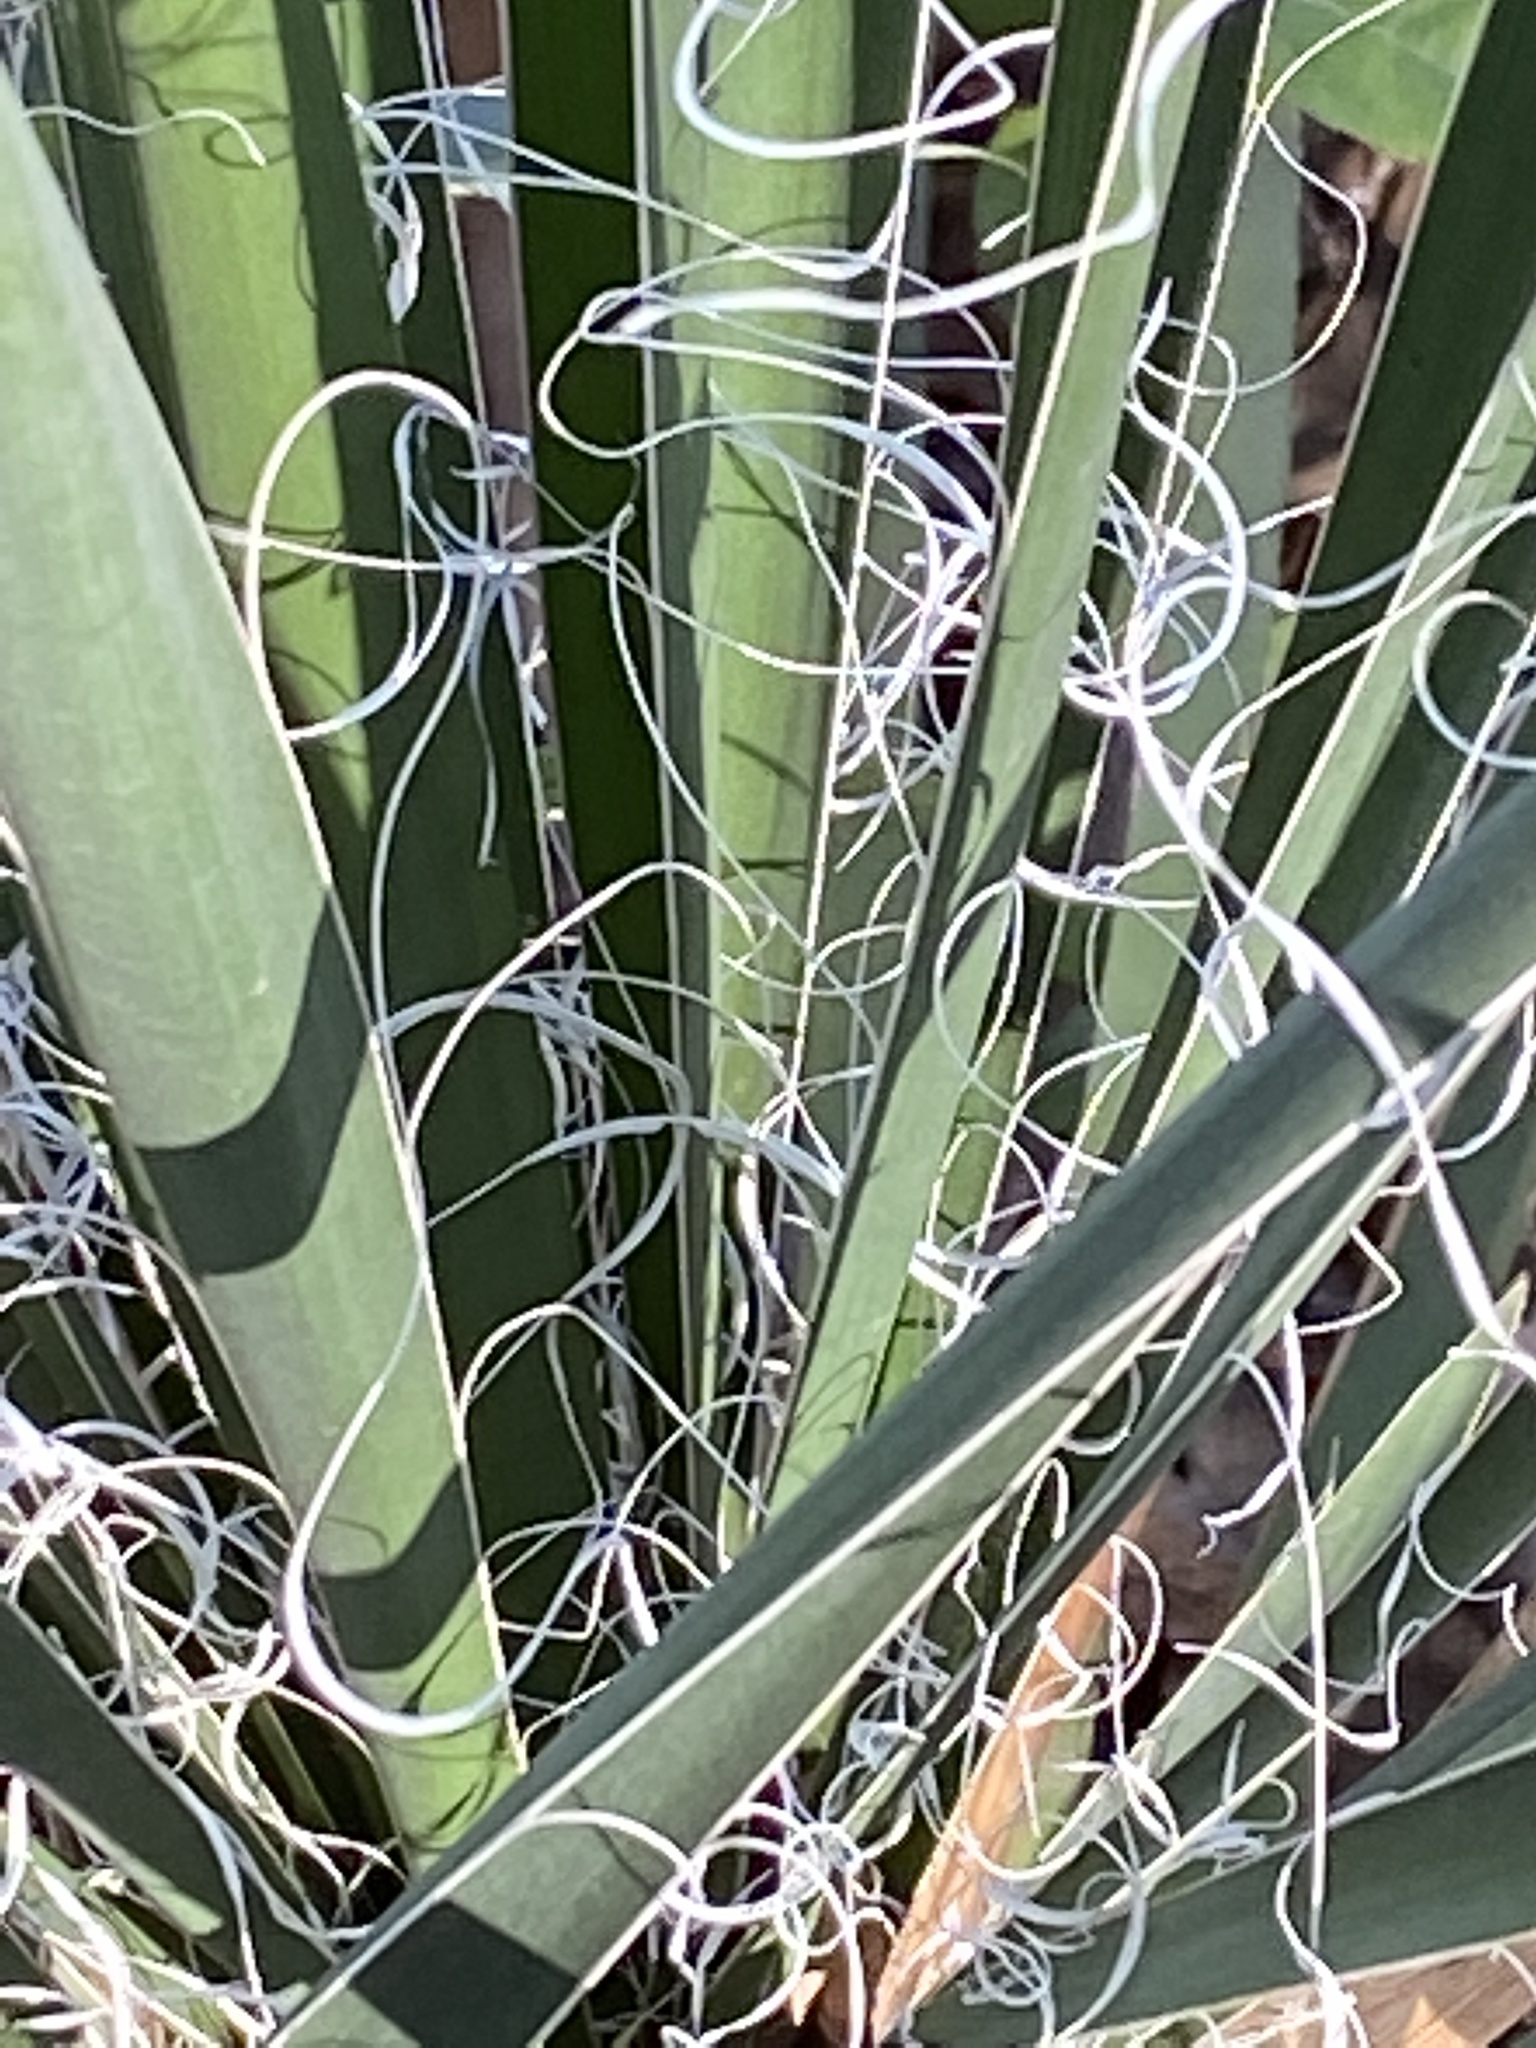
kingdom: Plantae
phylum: Tracheophyta
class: Liliopsida
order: Asparagales
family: Asparagaceae
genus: Yucca
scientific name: Yucca constricta
